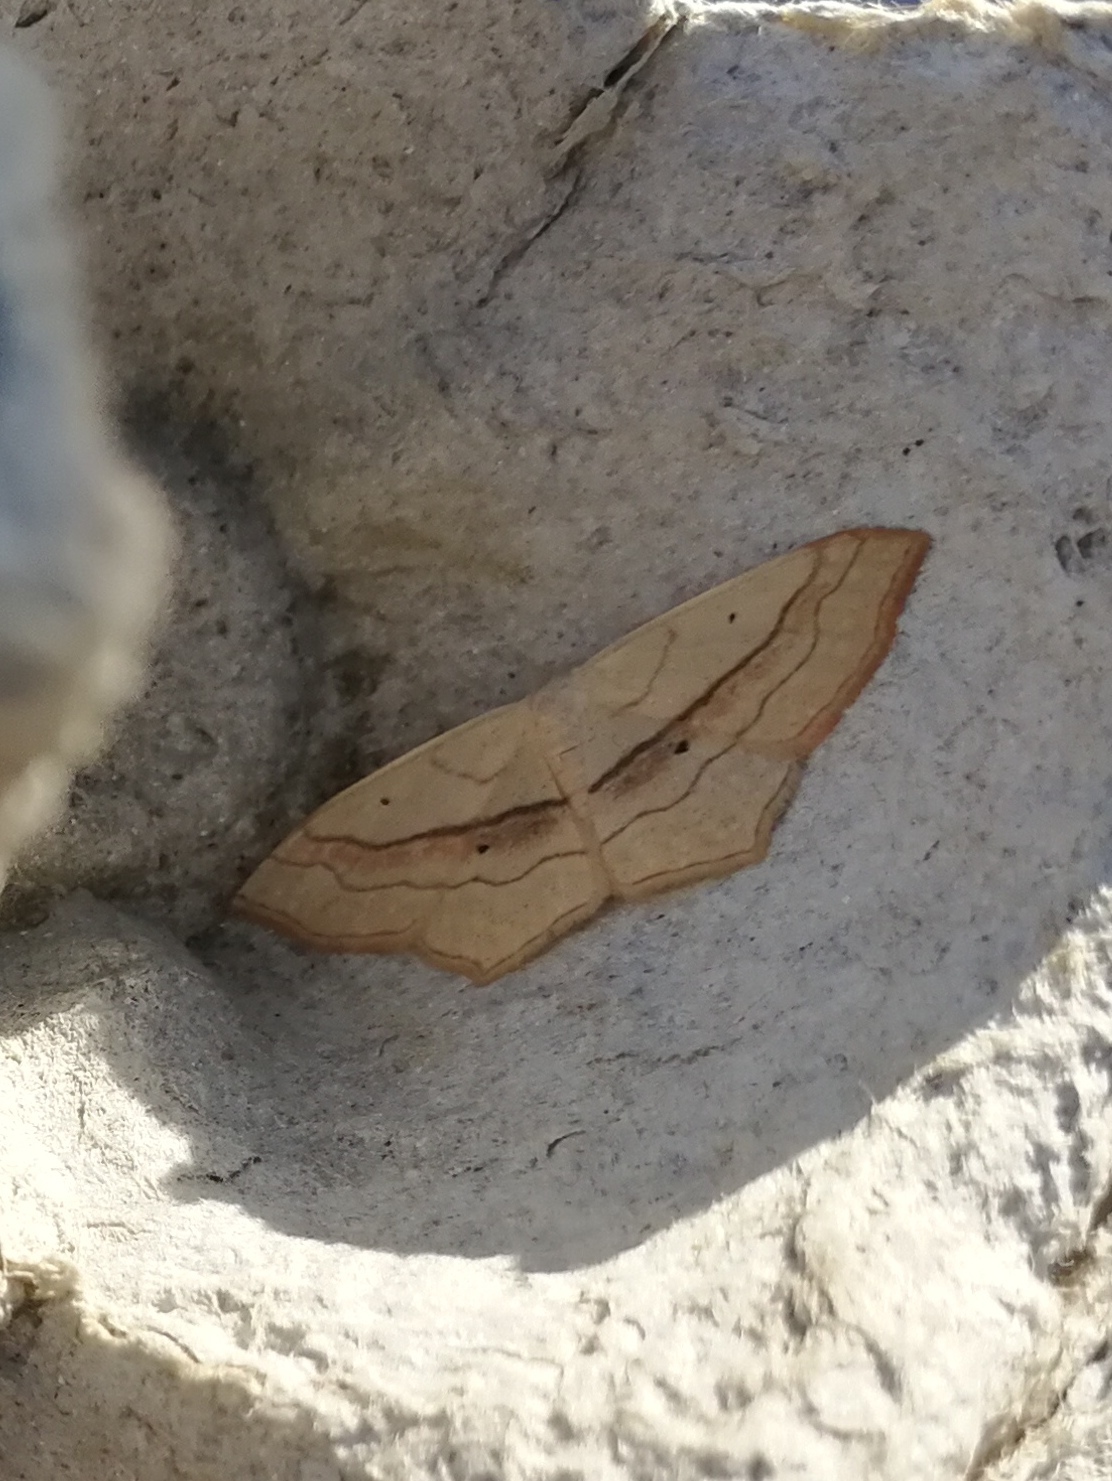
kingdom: Animalia
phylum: Arthropoda
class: Insecta
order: Lepidoptera
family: Geometridae
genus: Scopula
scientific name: Scopula imitaria
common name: Small blood-vein
